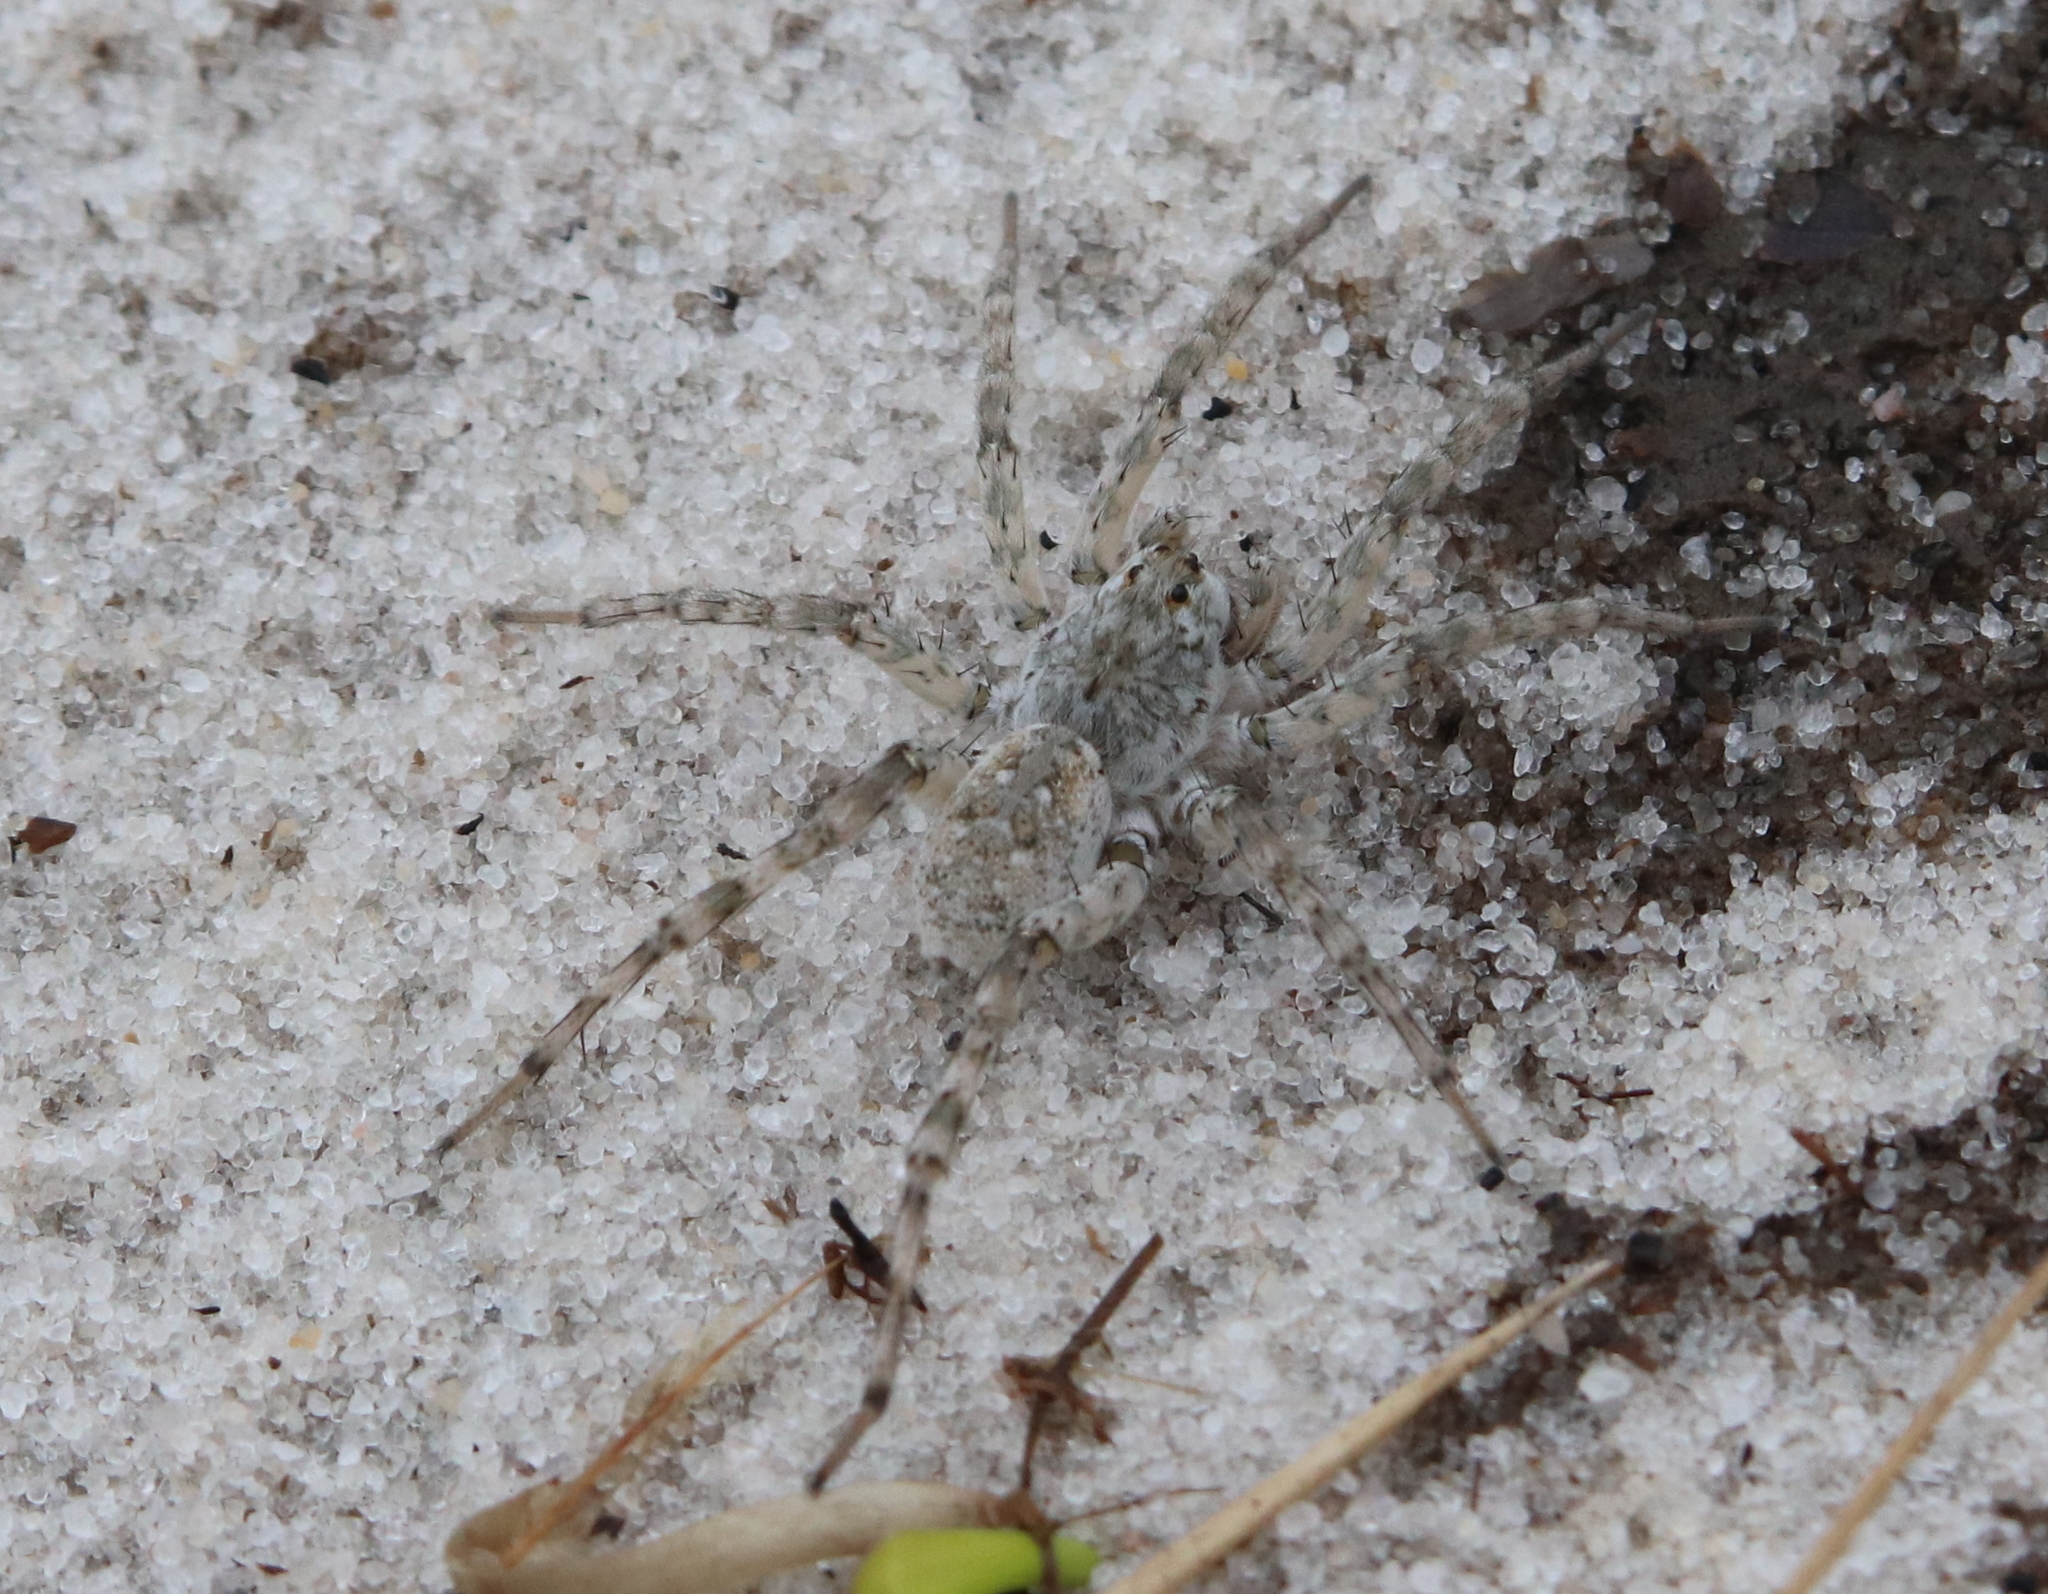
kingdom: Animalia
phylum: Arthropoda
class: Arachnida
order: Araneae
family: Lycosidae
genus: Arctosa
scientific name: Arctosa littoralis
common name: Wolf spiders
